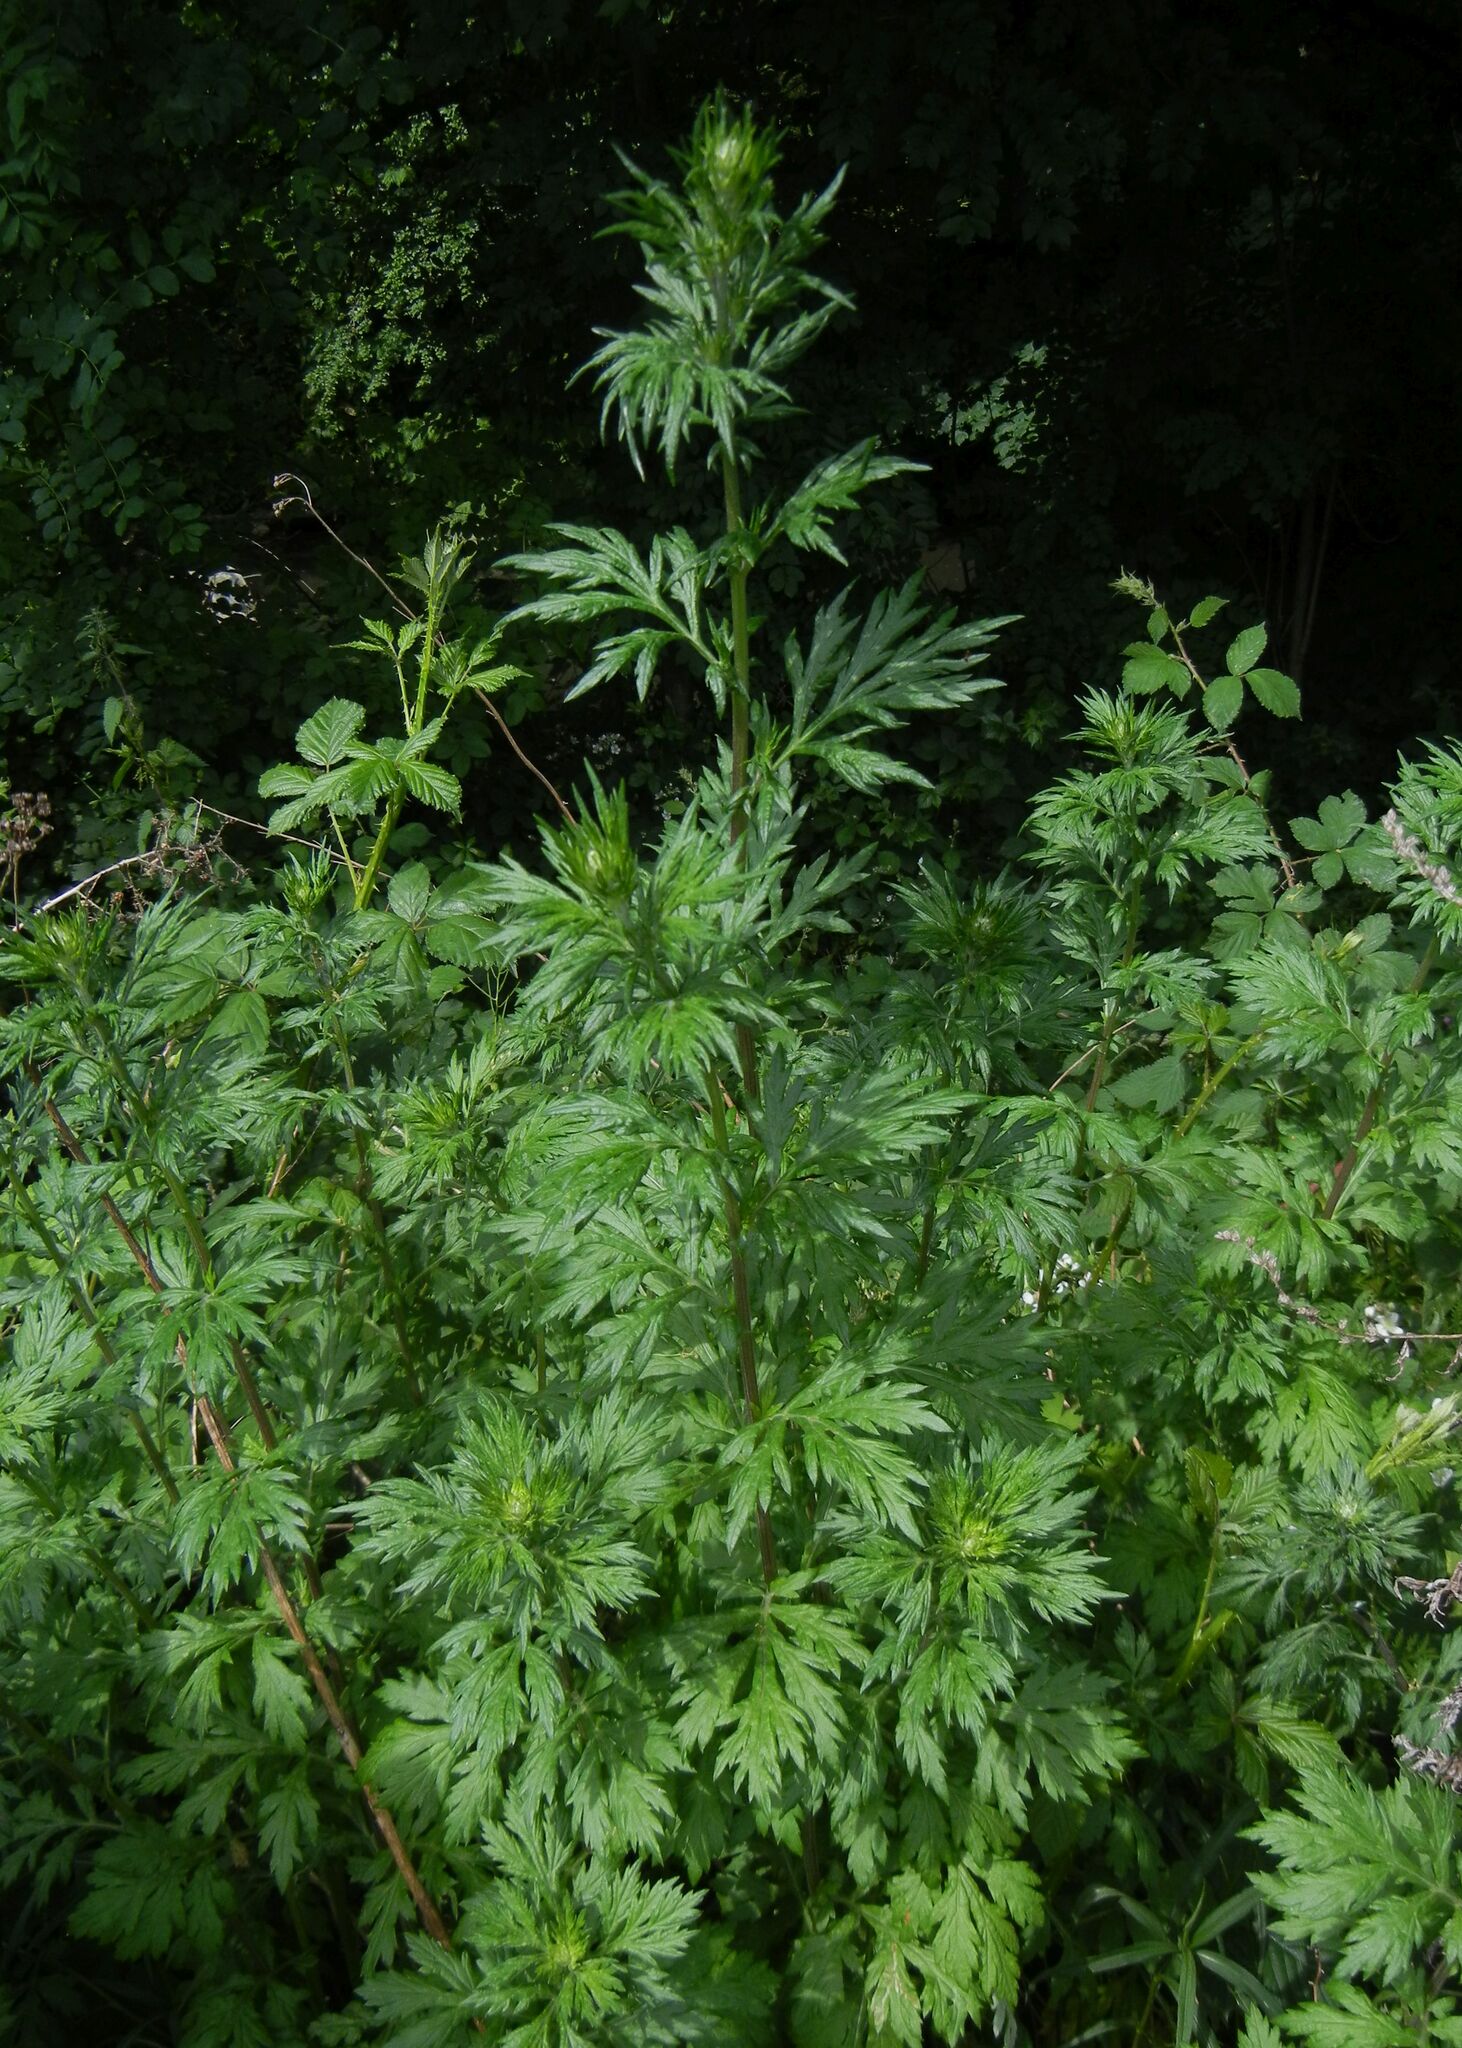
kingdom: Plantae
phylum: Tracheophyta
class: Magnoliopsida
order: Asterales
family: Asteraceae
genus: Artemisia
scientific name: Artemisia vulgaris
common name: Mugwort
